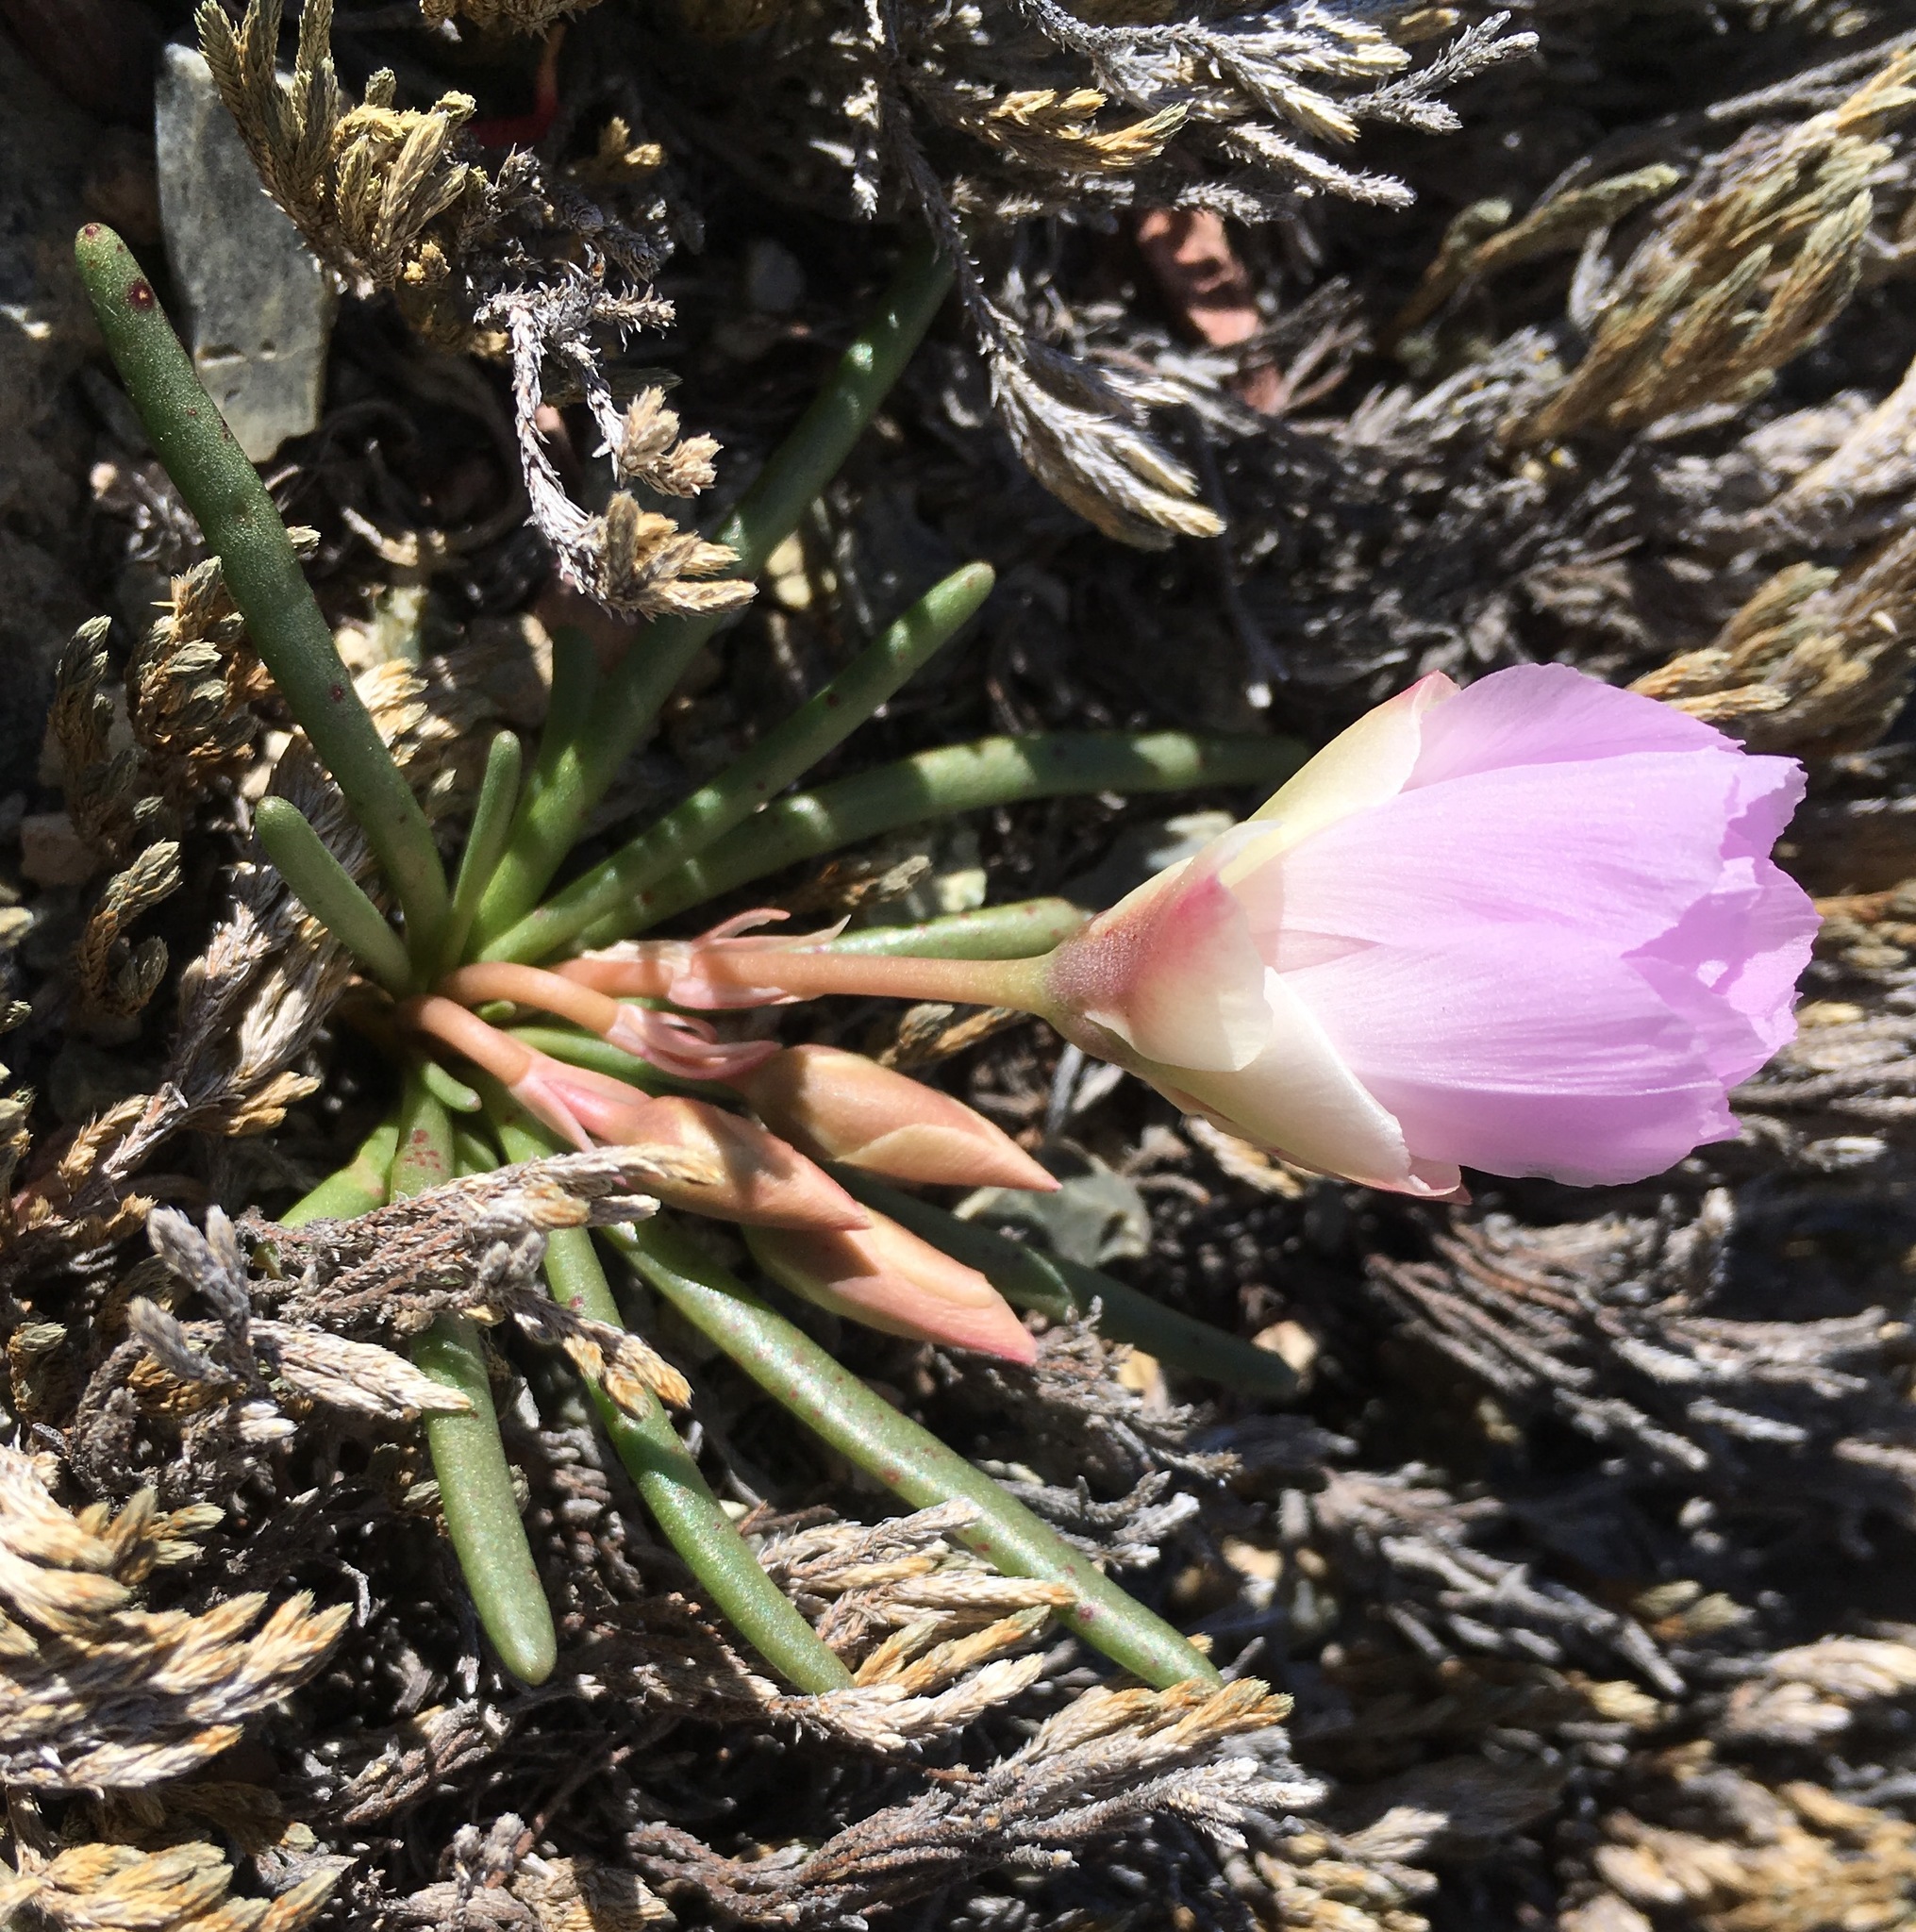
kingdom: Plantae
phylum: Tracheophyta
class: Magnoliopsida
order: Caryophyllales
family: Montiaceae
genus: Lewisia
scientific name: Lewisia rediviva
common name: Bitter-root
